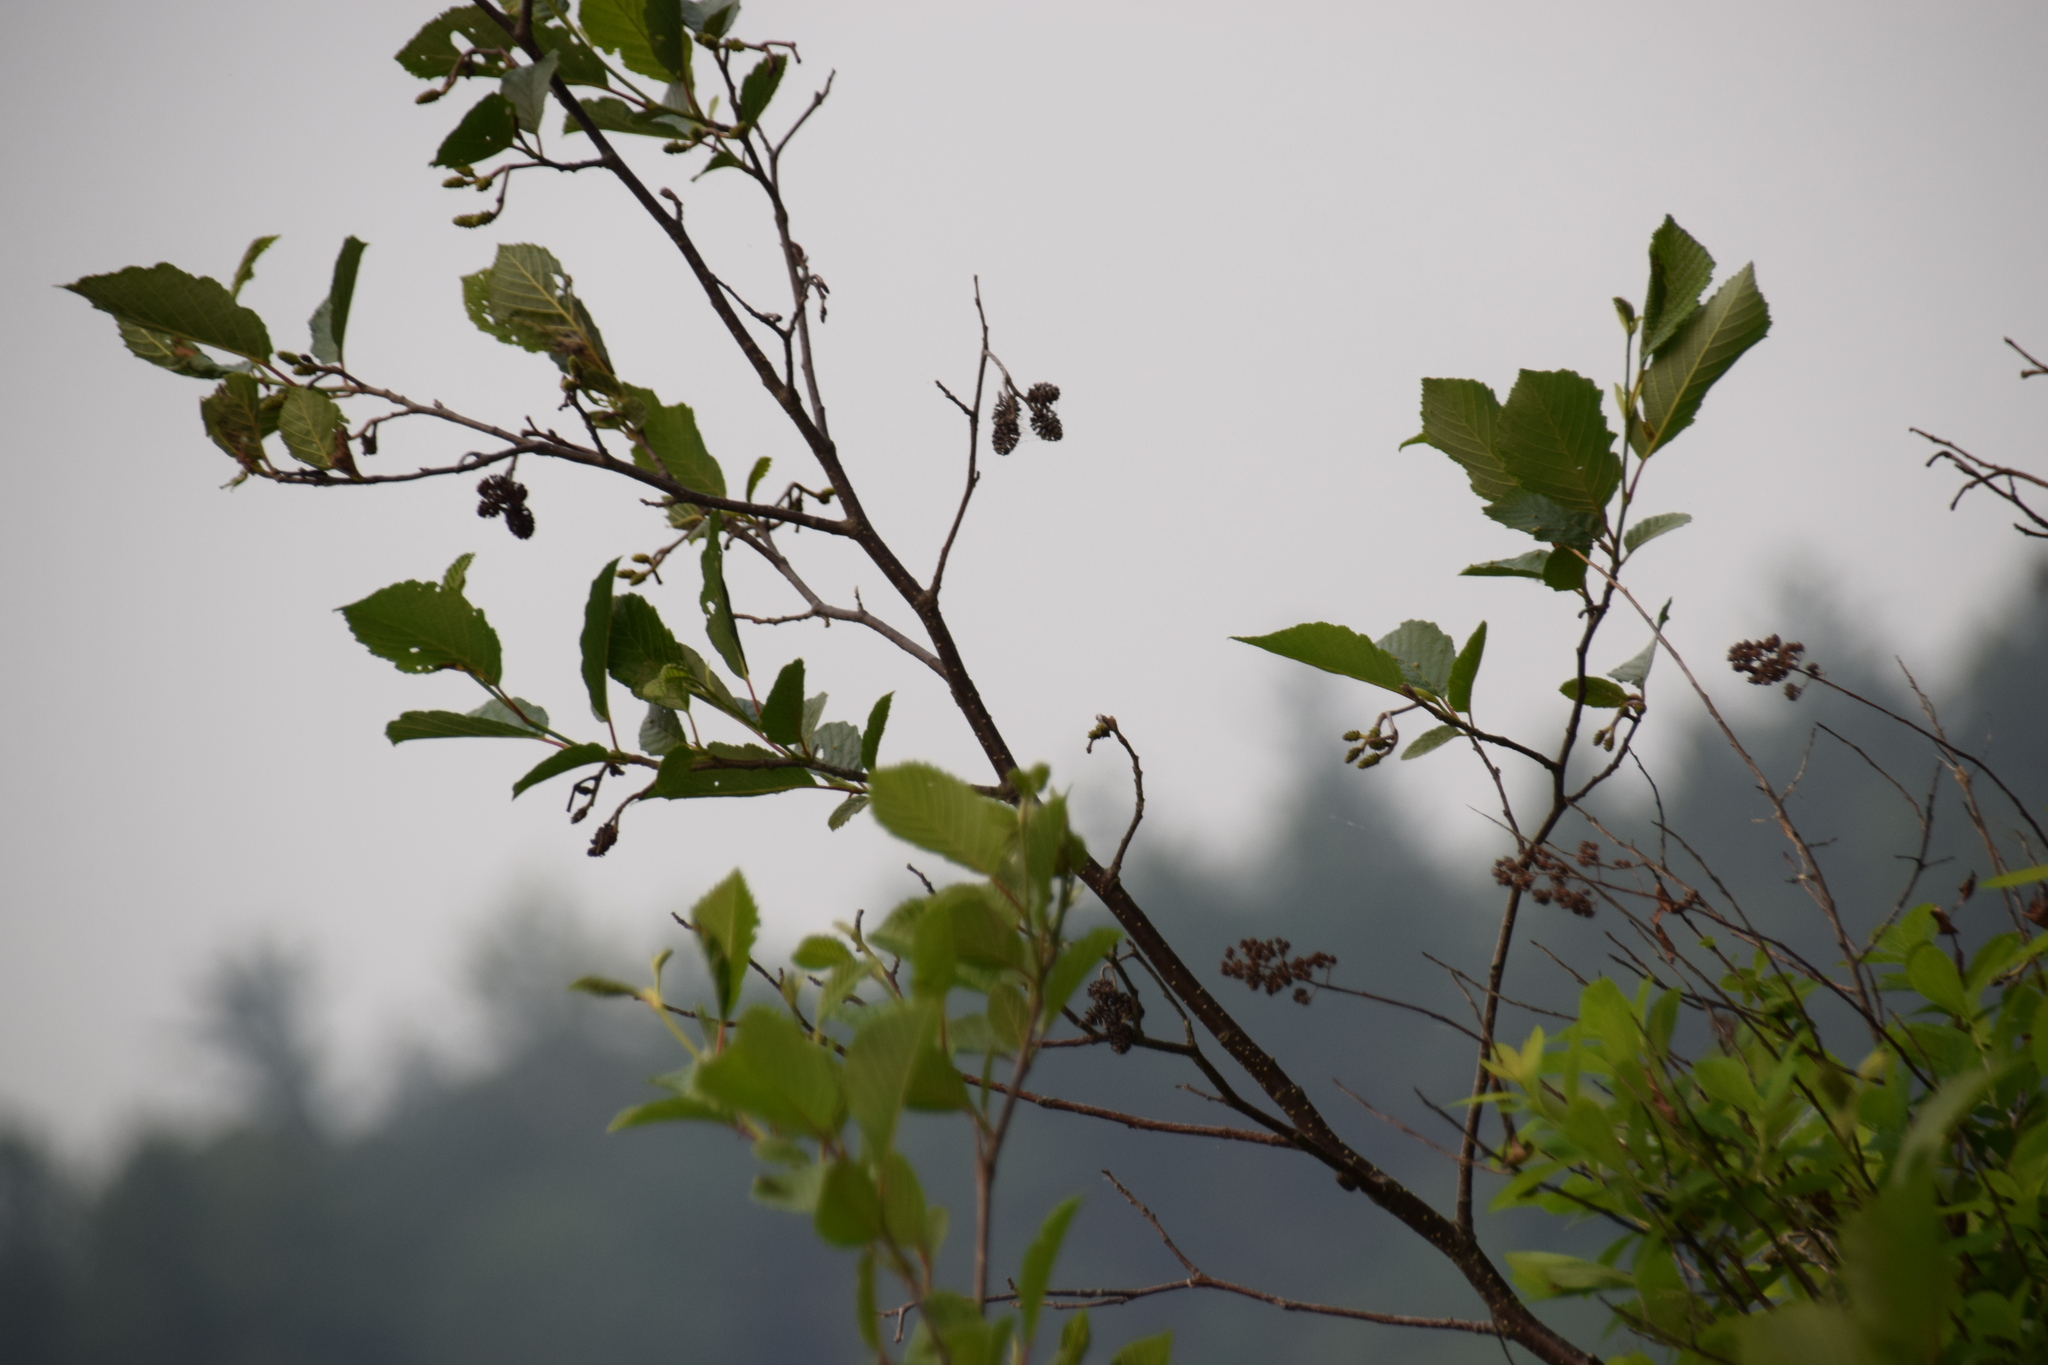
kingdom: Plantae
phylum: Tracheophyta
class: Magnoliopsida
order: Fagales
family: Betulaceae
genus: Alnus
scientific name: Alnus incana
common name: Grey alder
